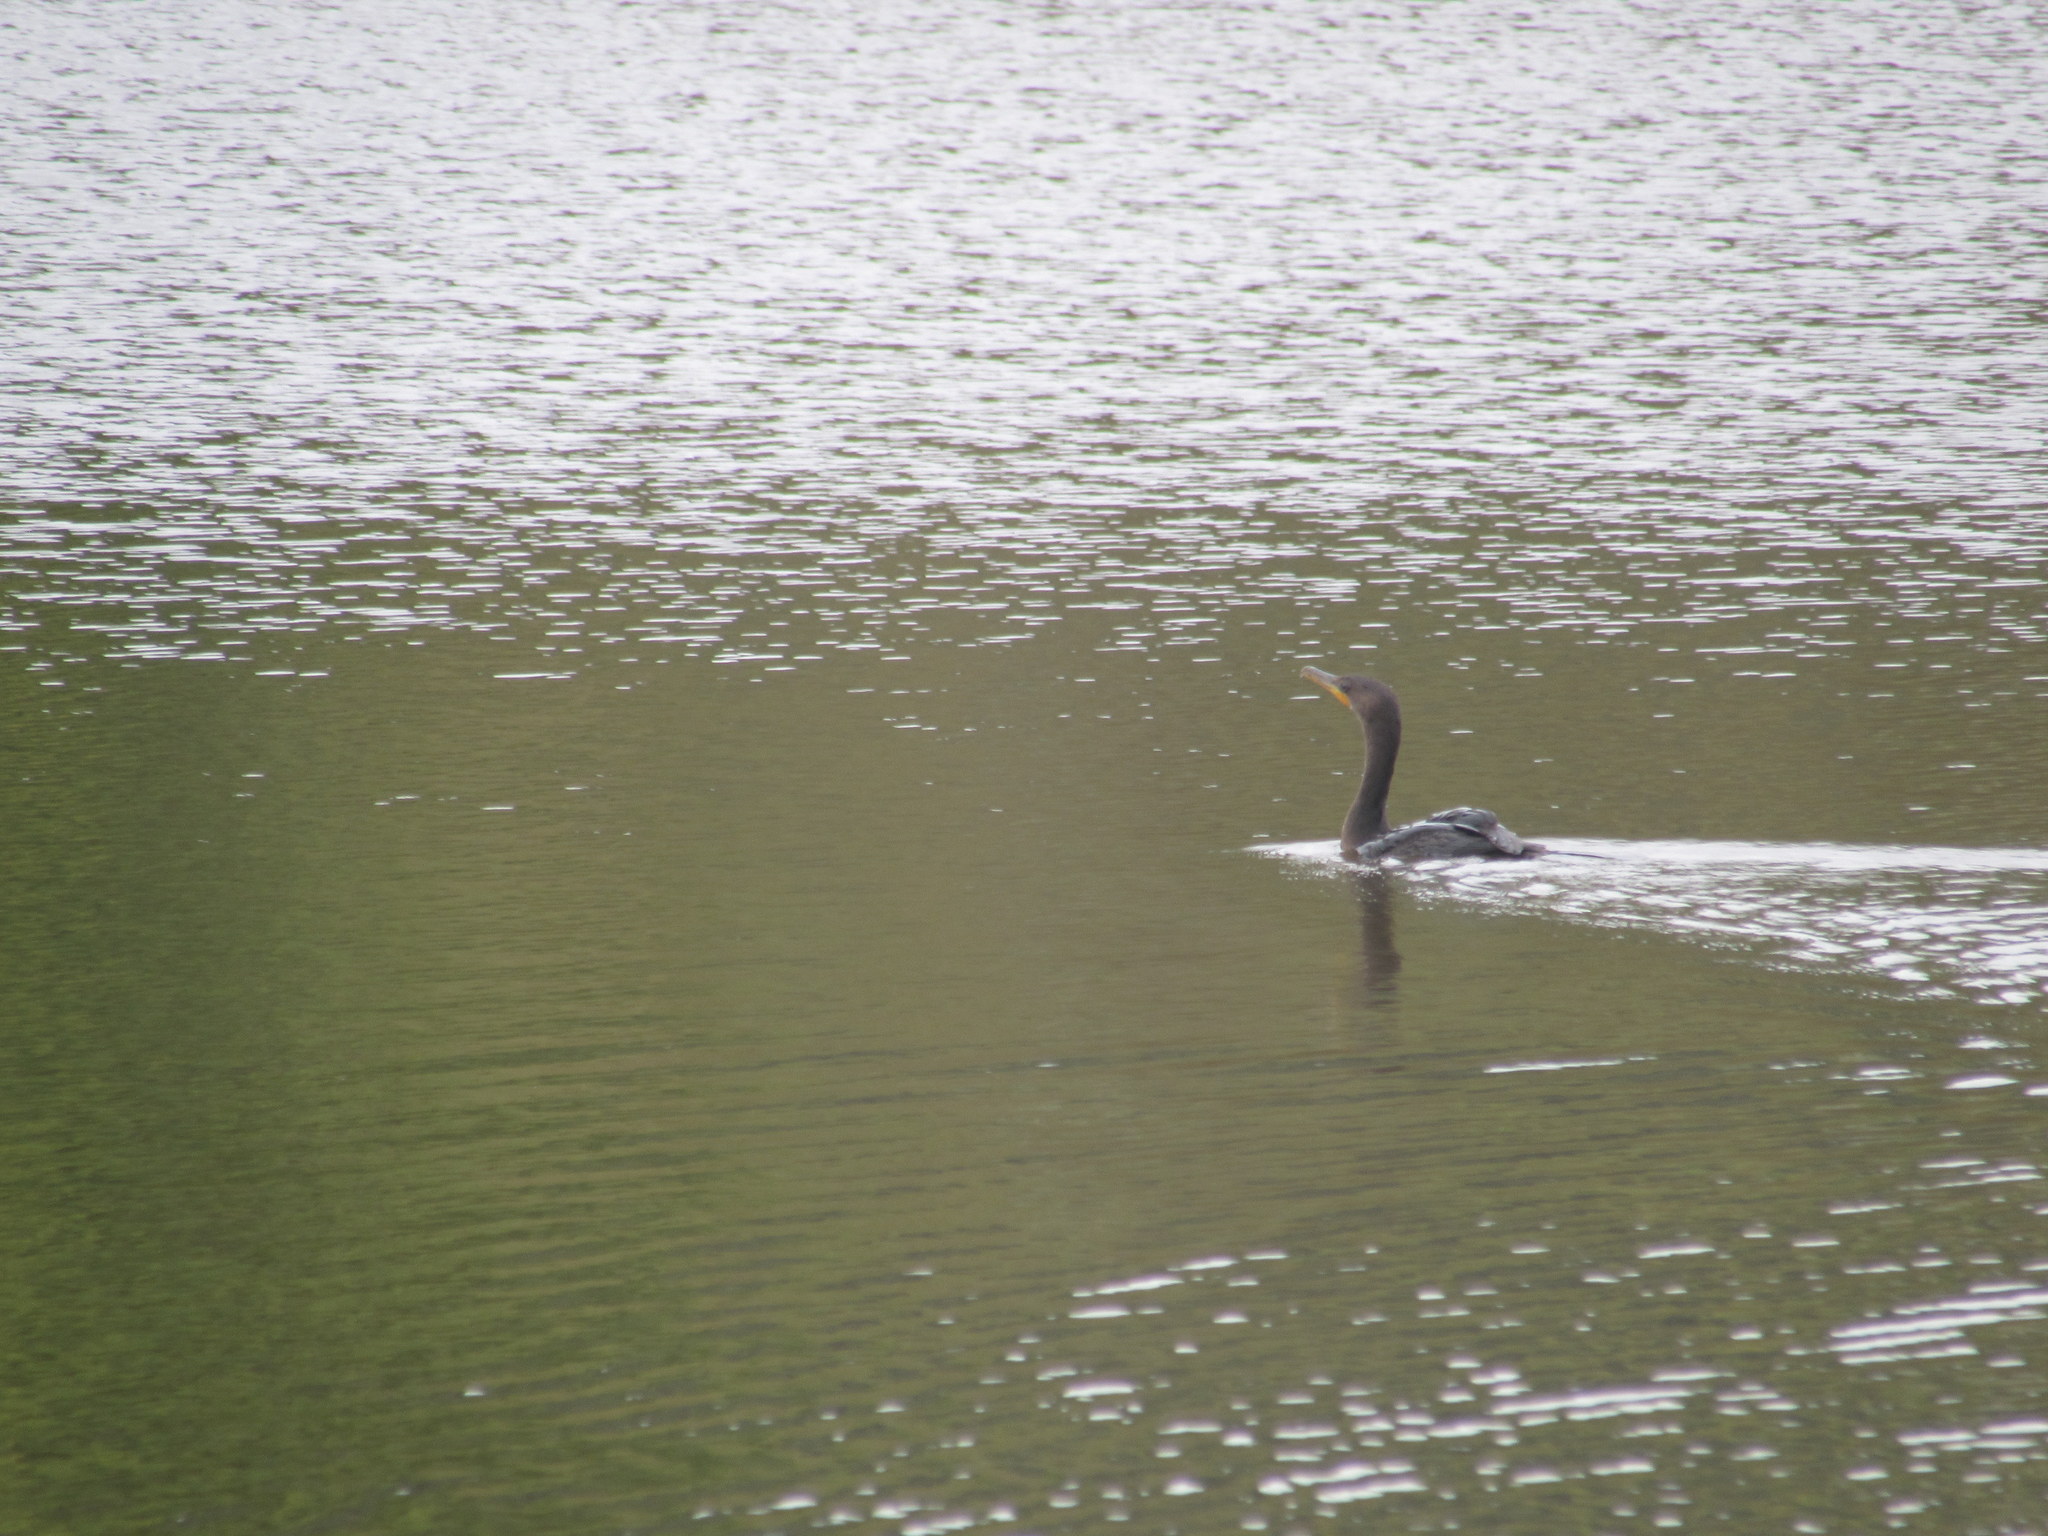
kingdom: Animalia
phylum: Chordata
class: Aves
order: Suliformes
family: Phalacrocoracidae
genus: Phalacrocorax
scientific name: Phalacrocorax auritus
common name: Double-crested cormorant
